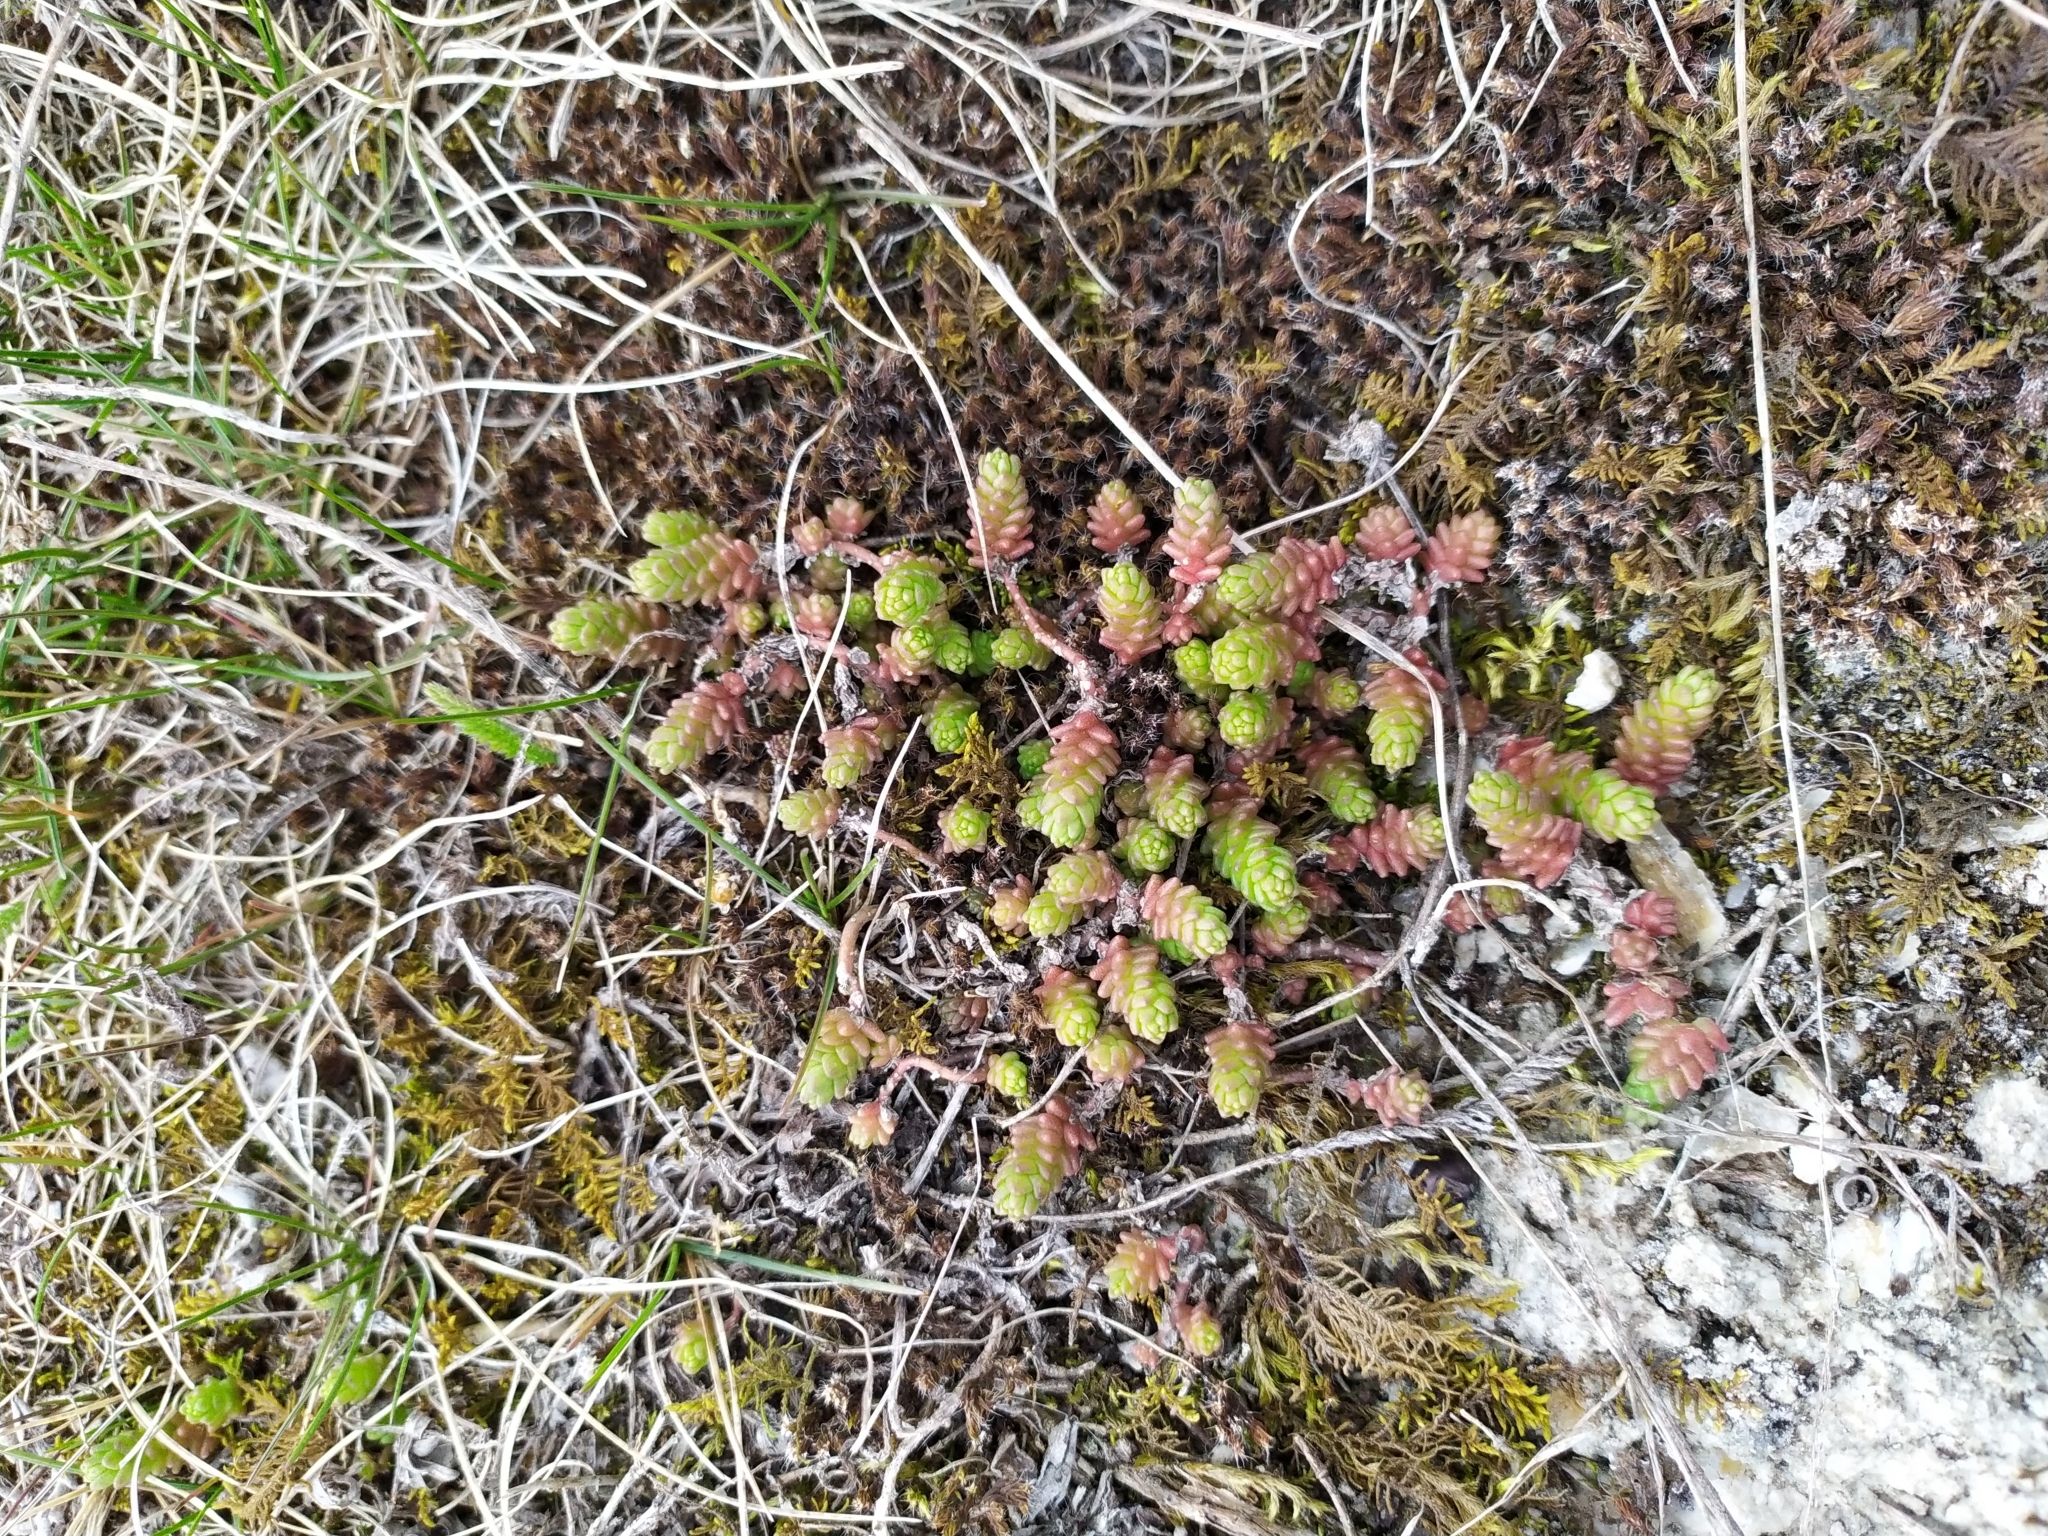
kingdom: Plantae
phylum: Tracheophyta
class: Magnoliopsida
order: Saxifragales
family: Crassulaceae
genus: Sedum
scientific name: Sedum acre
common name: Biting stonecrop
